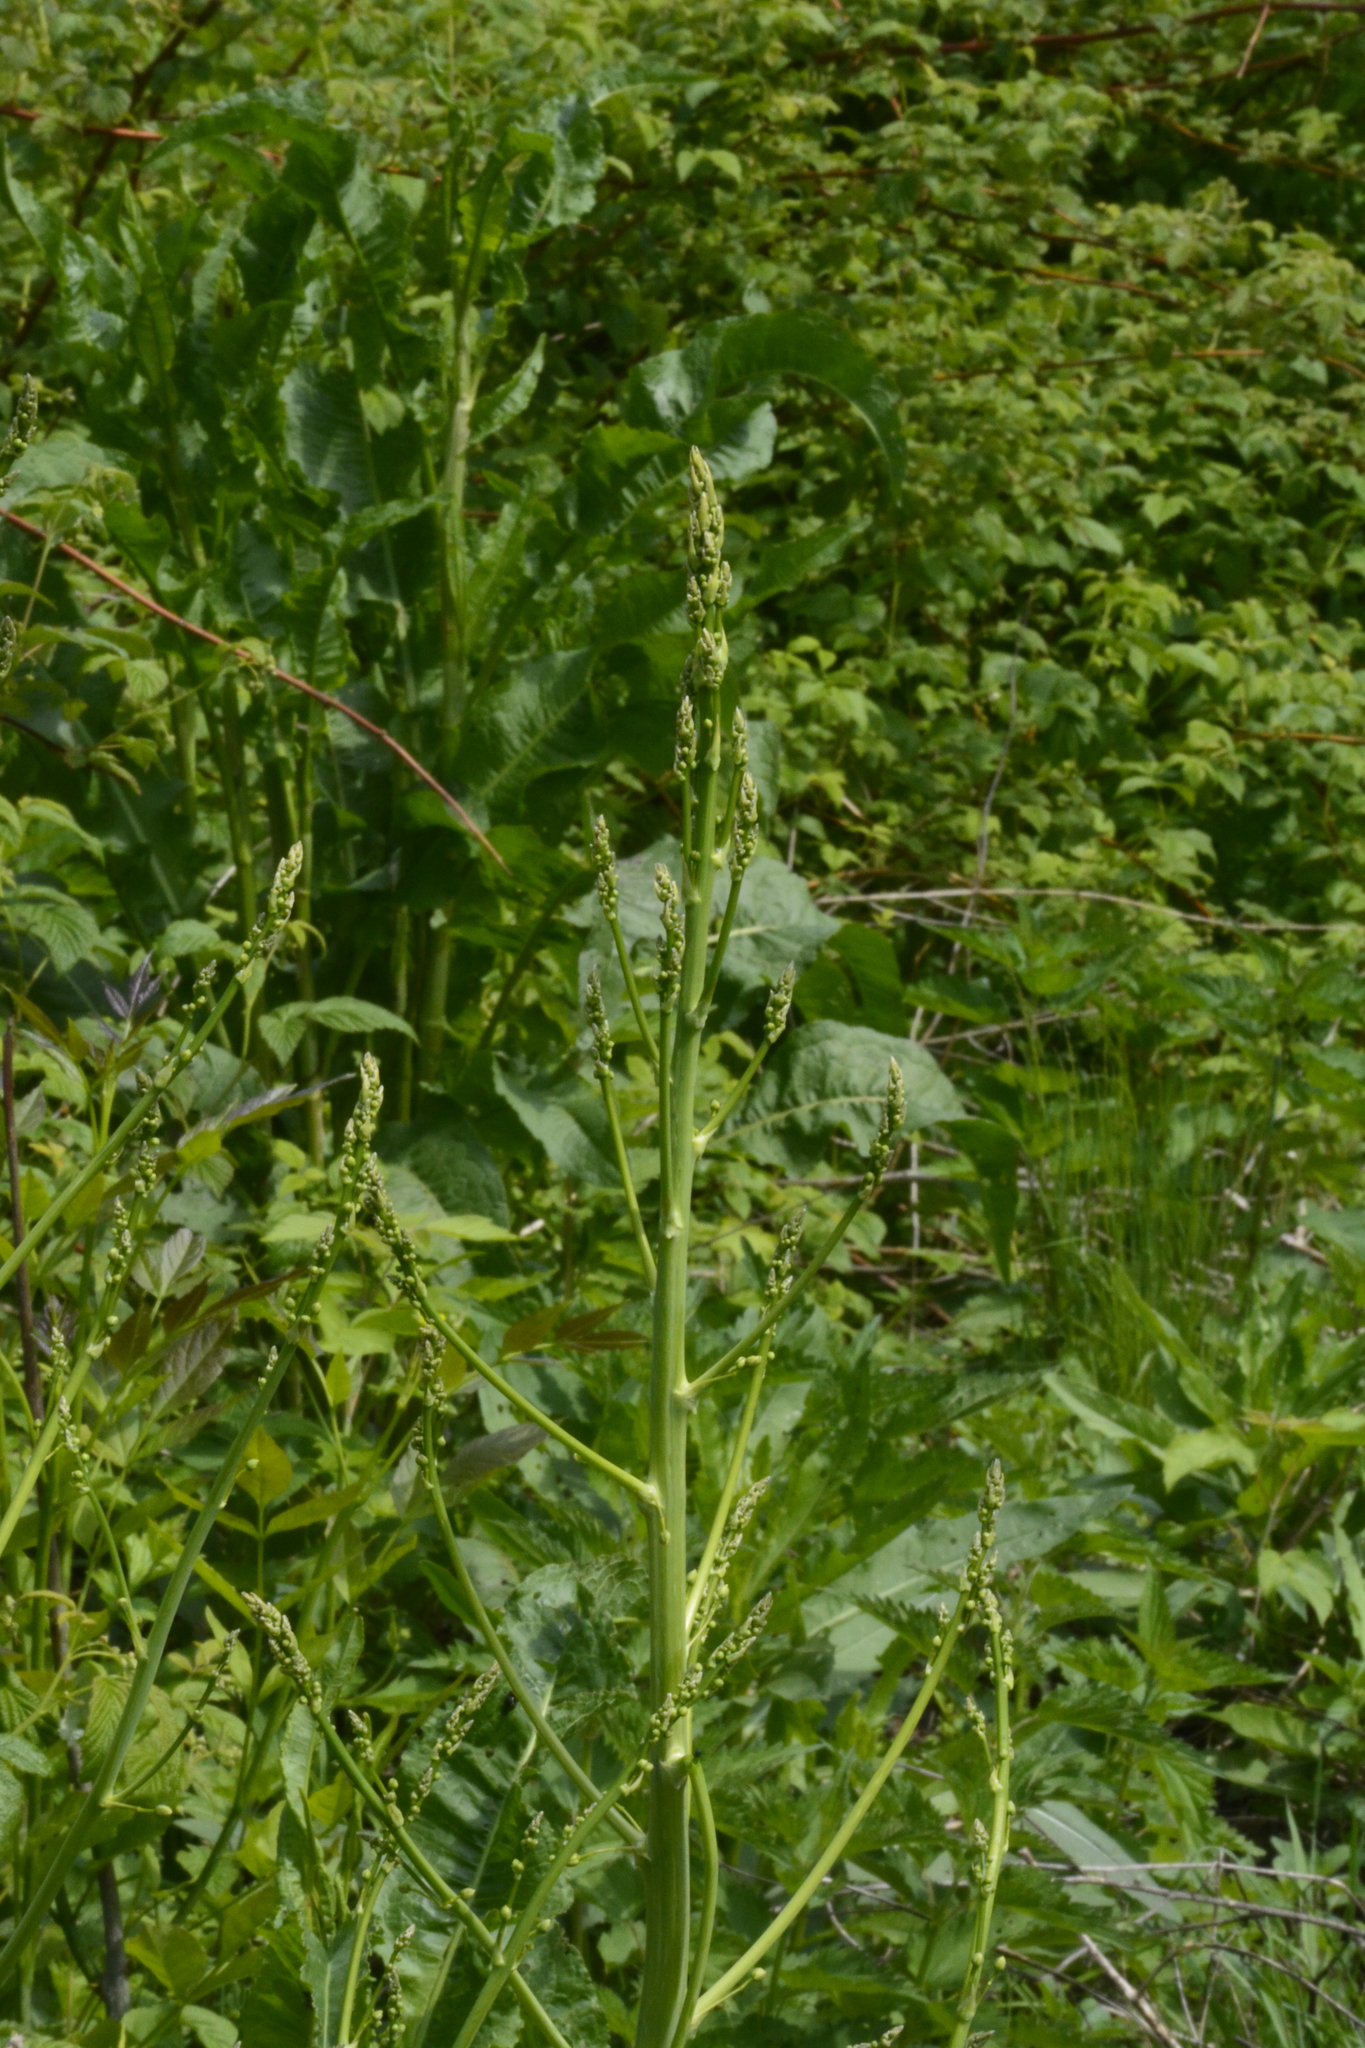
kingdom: Plantae
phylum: Tracheophyta
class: Liliopsida
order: Asparagales
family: Asparagaceae
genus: Asparagus
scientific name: Asparagus officinalis
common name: Garden asparagus
